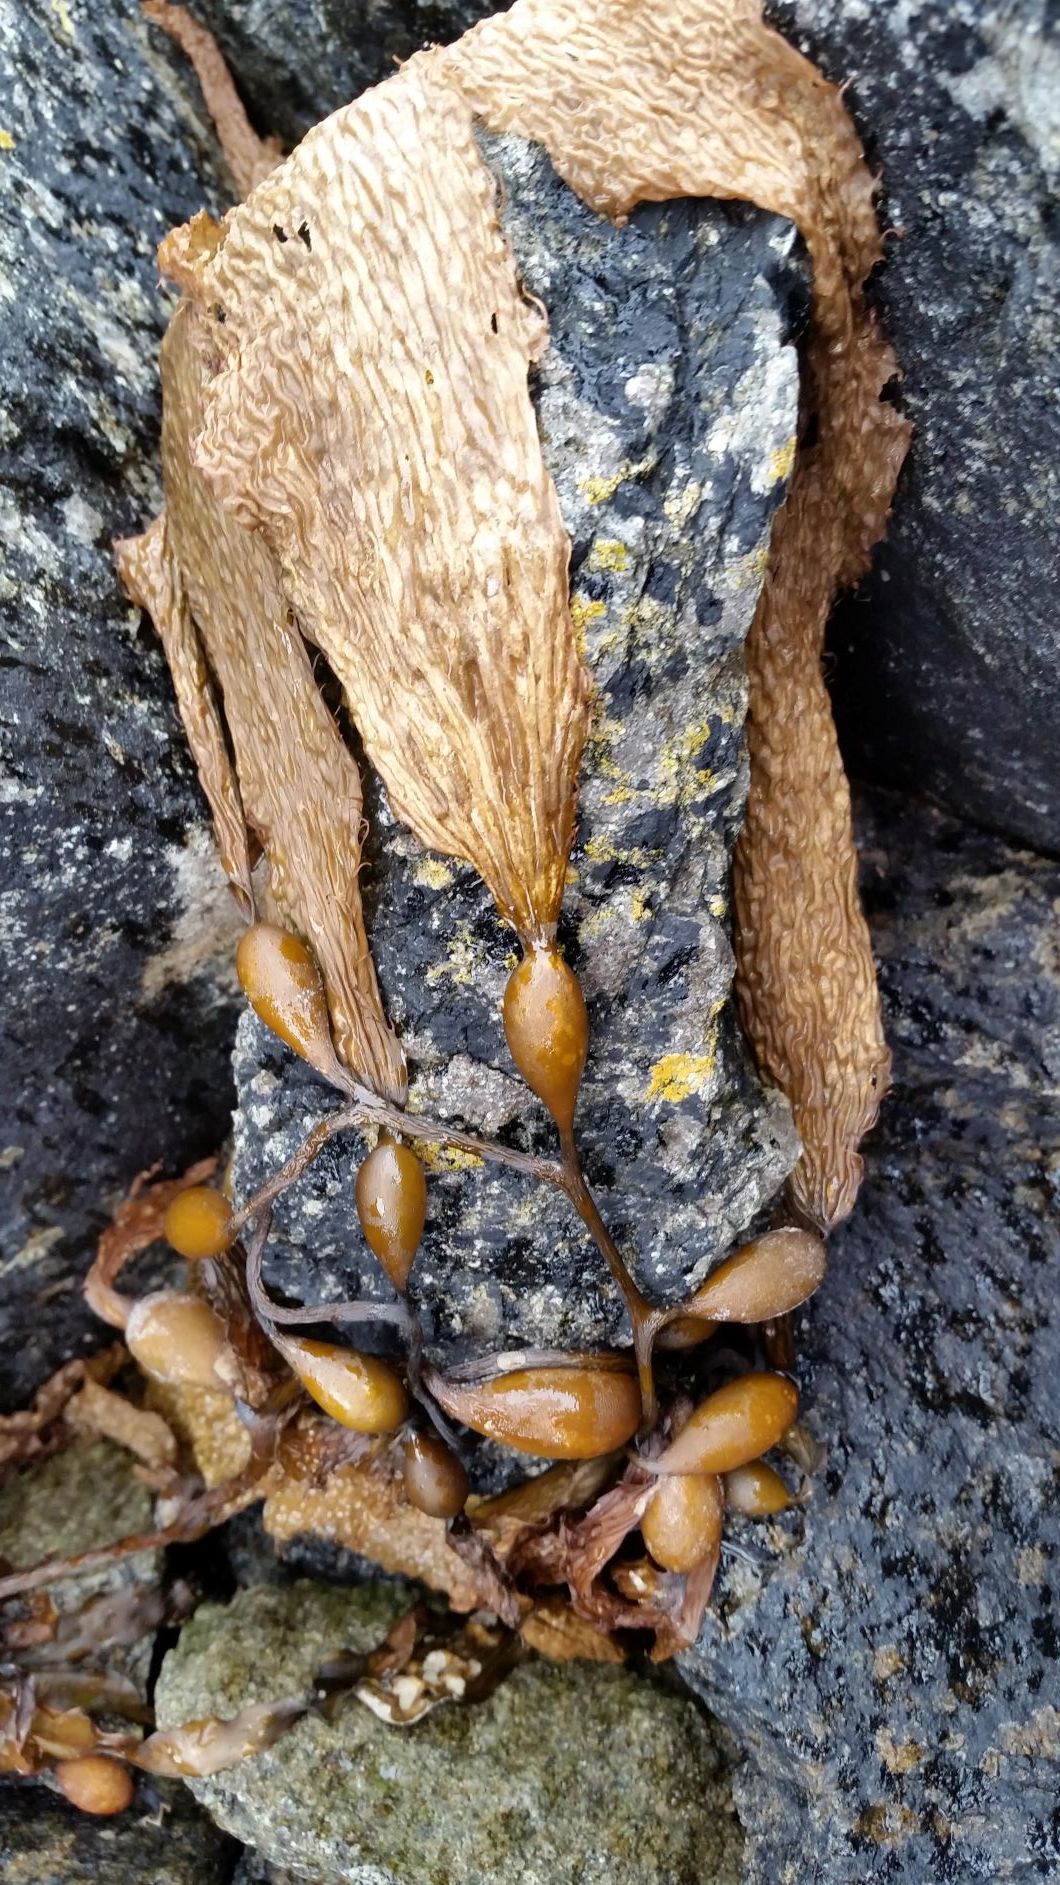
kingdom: Chromista
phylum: Ochrophyta
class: Phaeophyceae
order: Laminariales
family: Laminariaceae
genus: Macrocystis
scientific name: Macrocystis pyrifera
